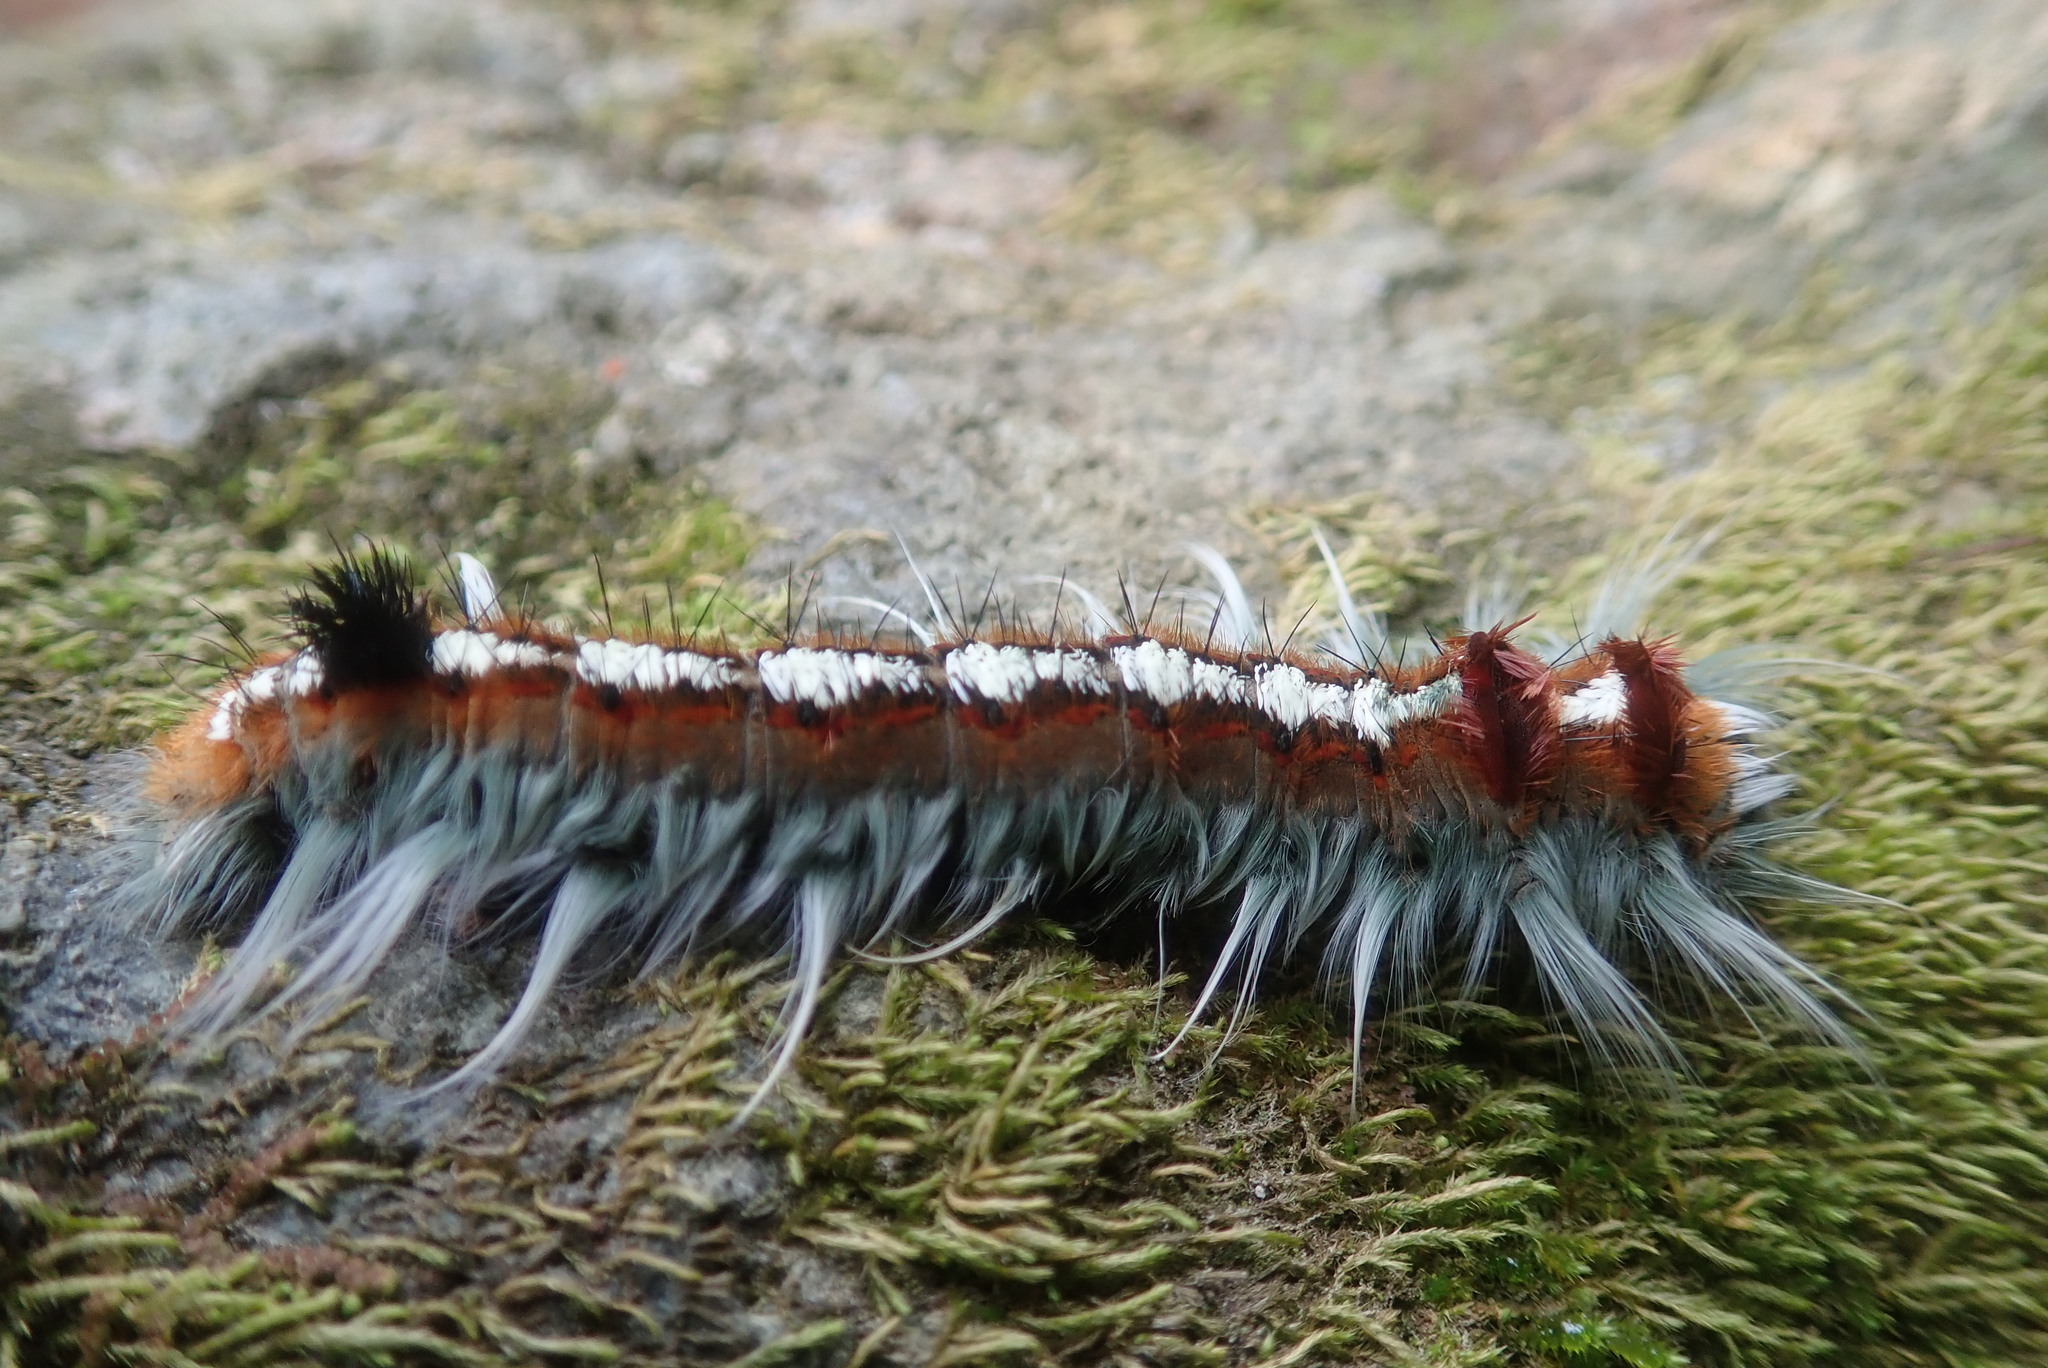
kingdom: Animalia
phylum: Arthropoda
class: Insecta
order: Lepidoptera
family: Lasiocampidae
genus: Eutricha
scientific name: Eutricha obscura
